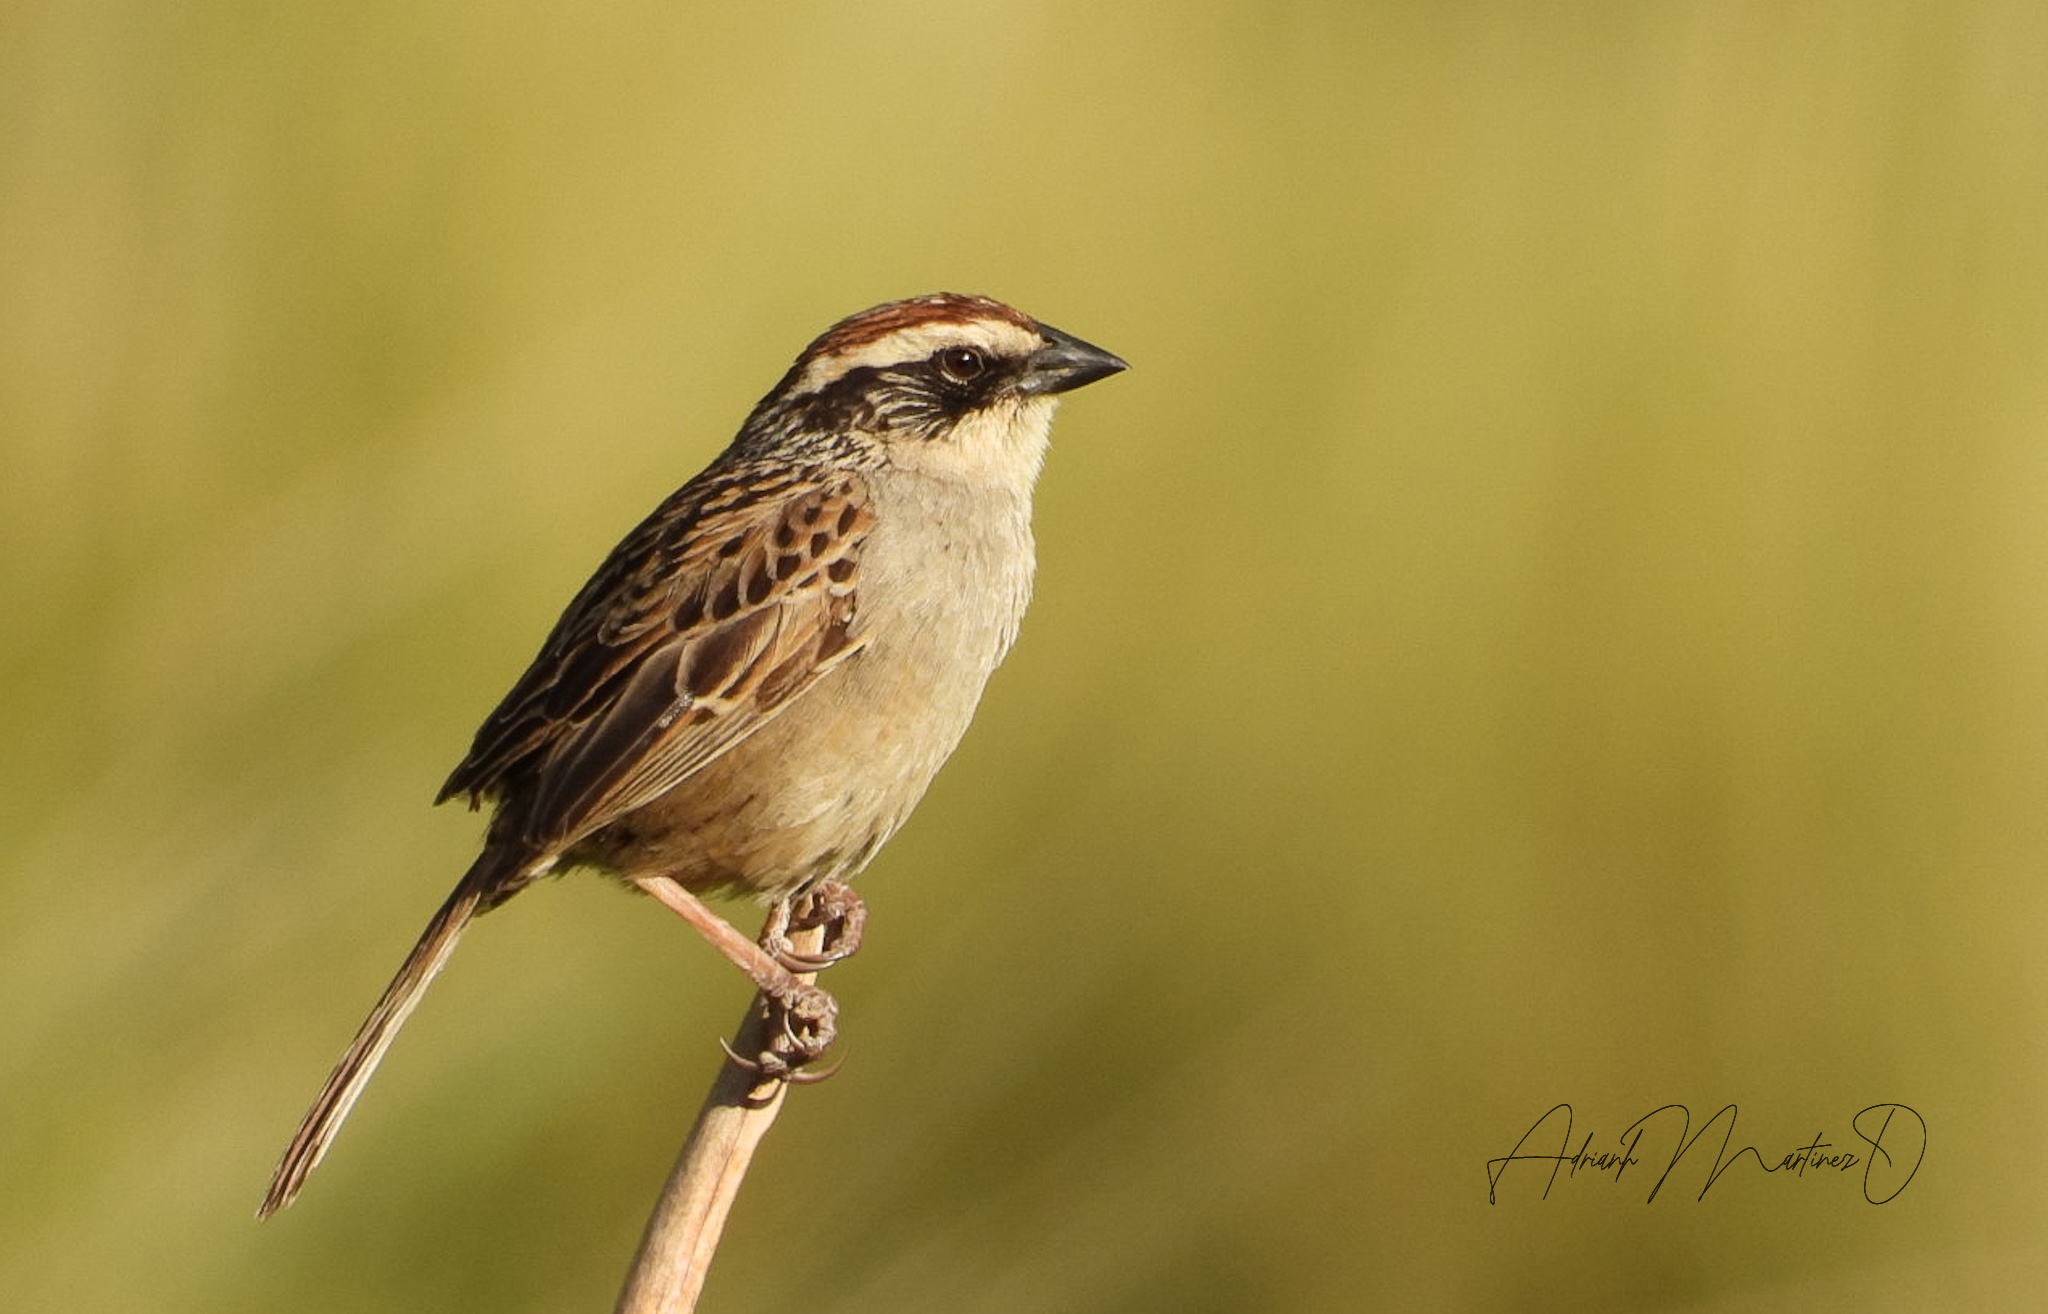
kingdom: Animalia
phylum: Chordata
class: Aves
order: Passeriformes
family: Passerellidae
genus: Oriturus
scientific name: Oriturus superciliosus
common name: Striped sparrow
